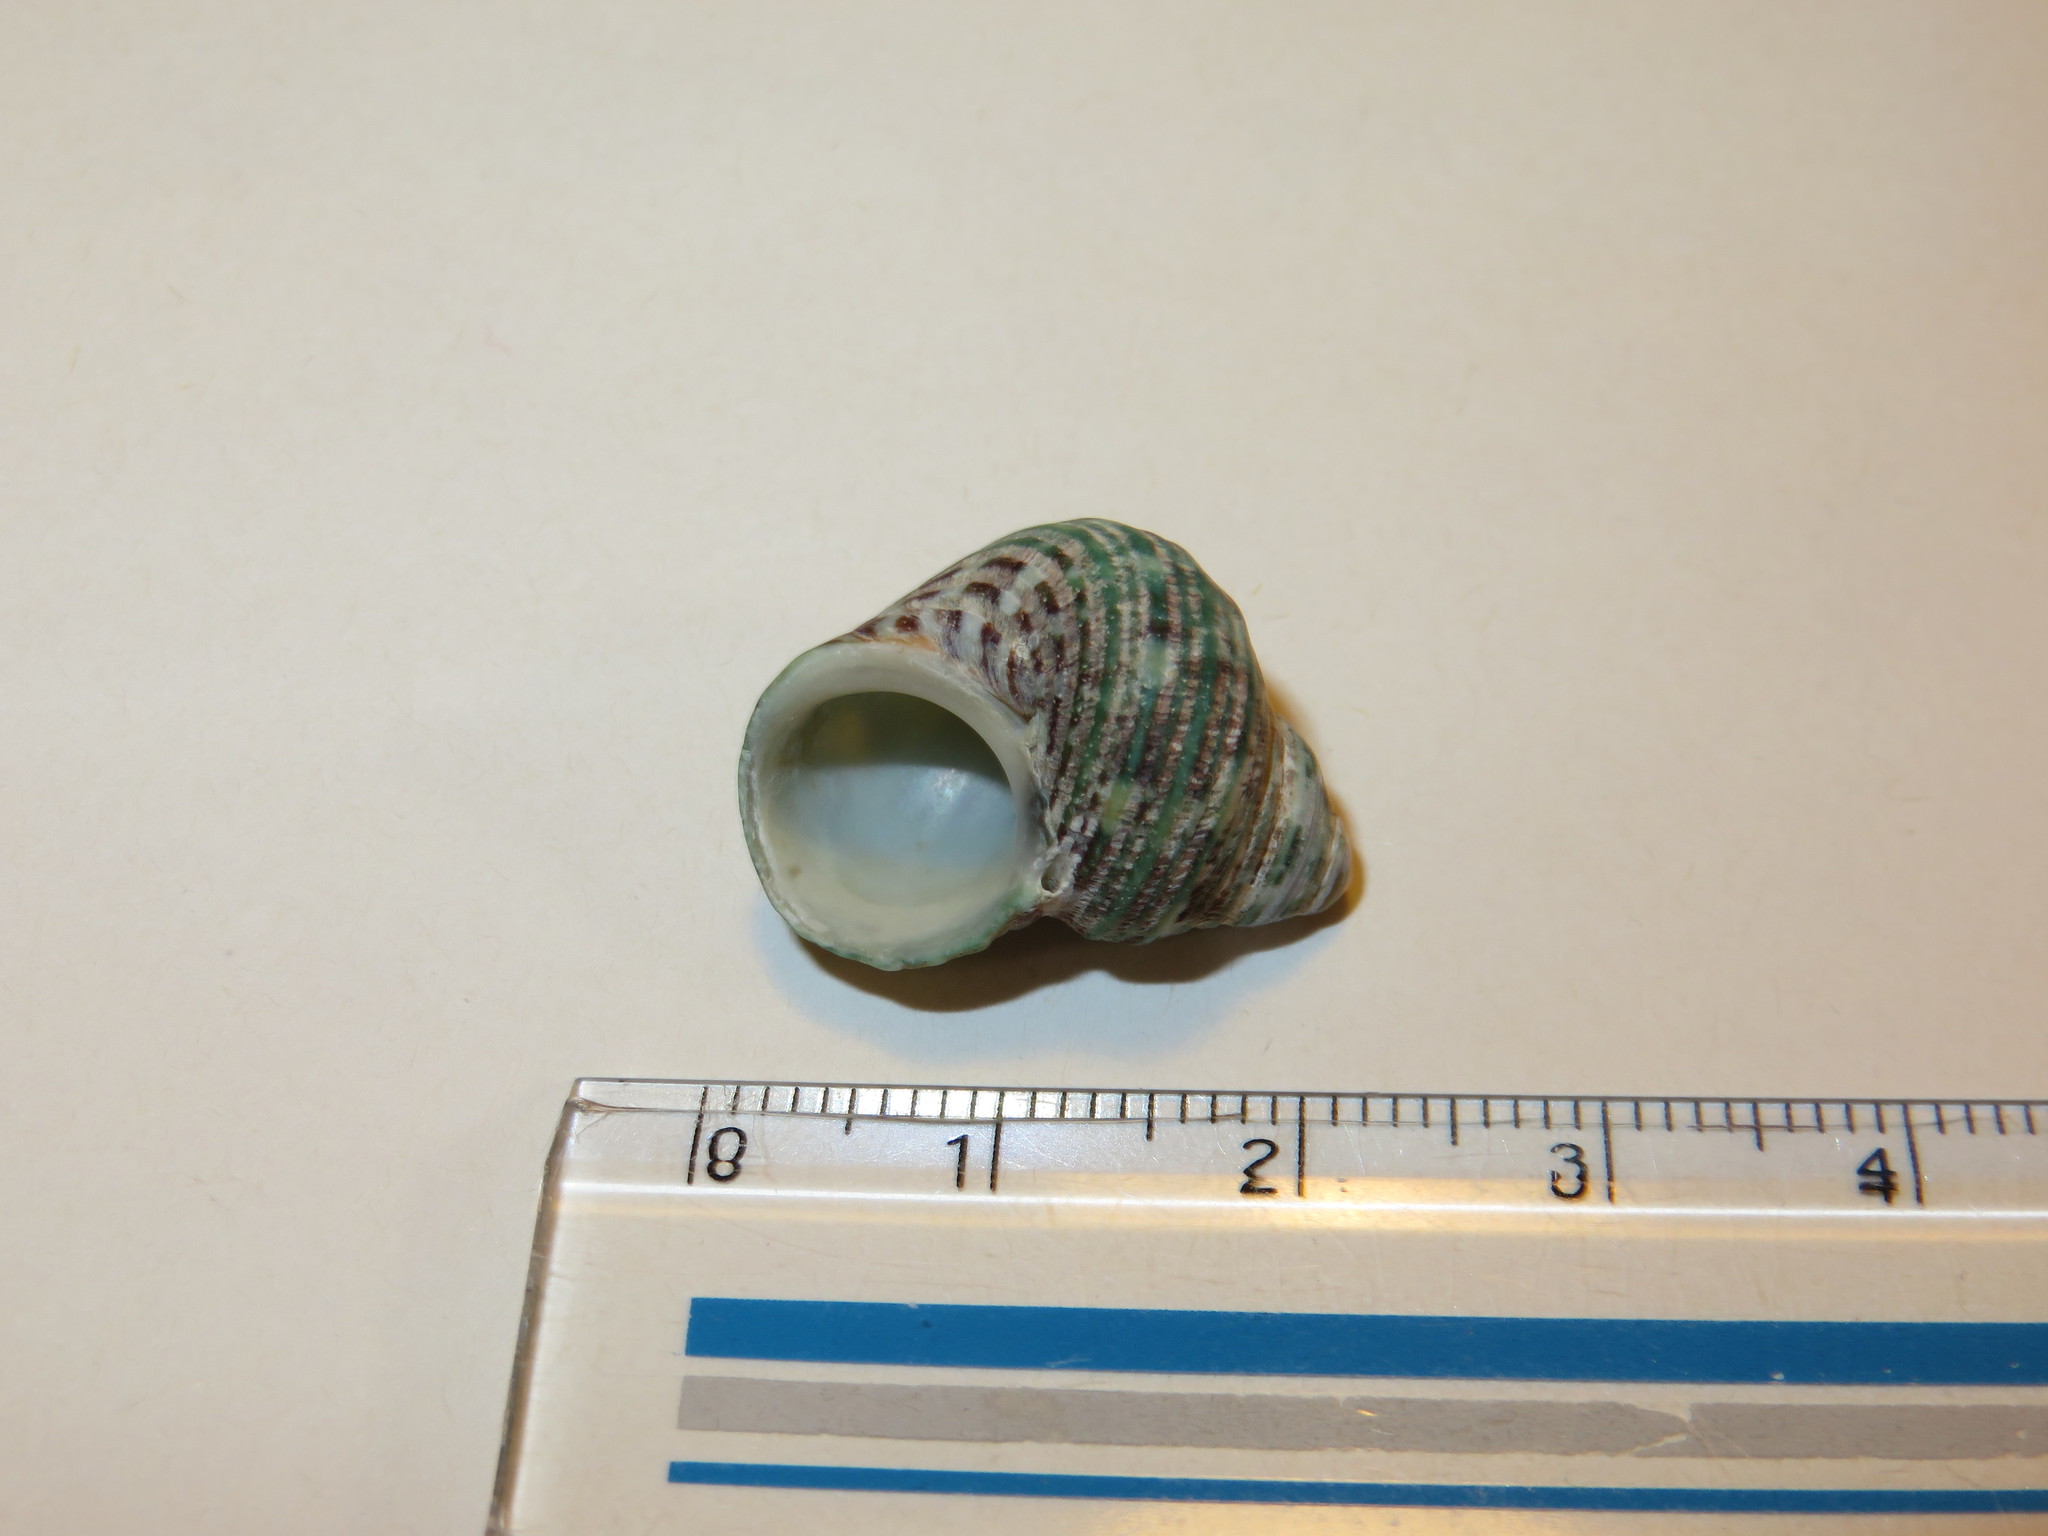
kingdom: Animalia
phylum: Mollusca
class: Gastropoda
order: Trochida
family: Turbinidae
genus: Turbo
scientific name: Turbo stenogyrus
